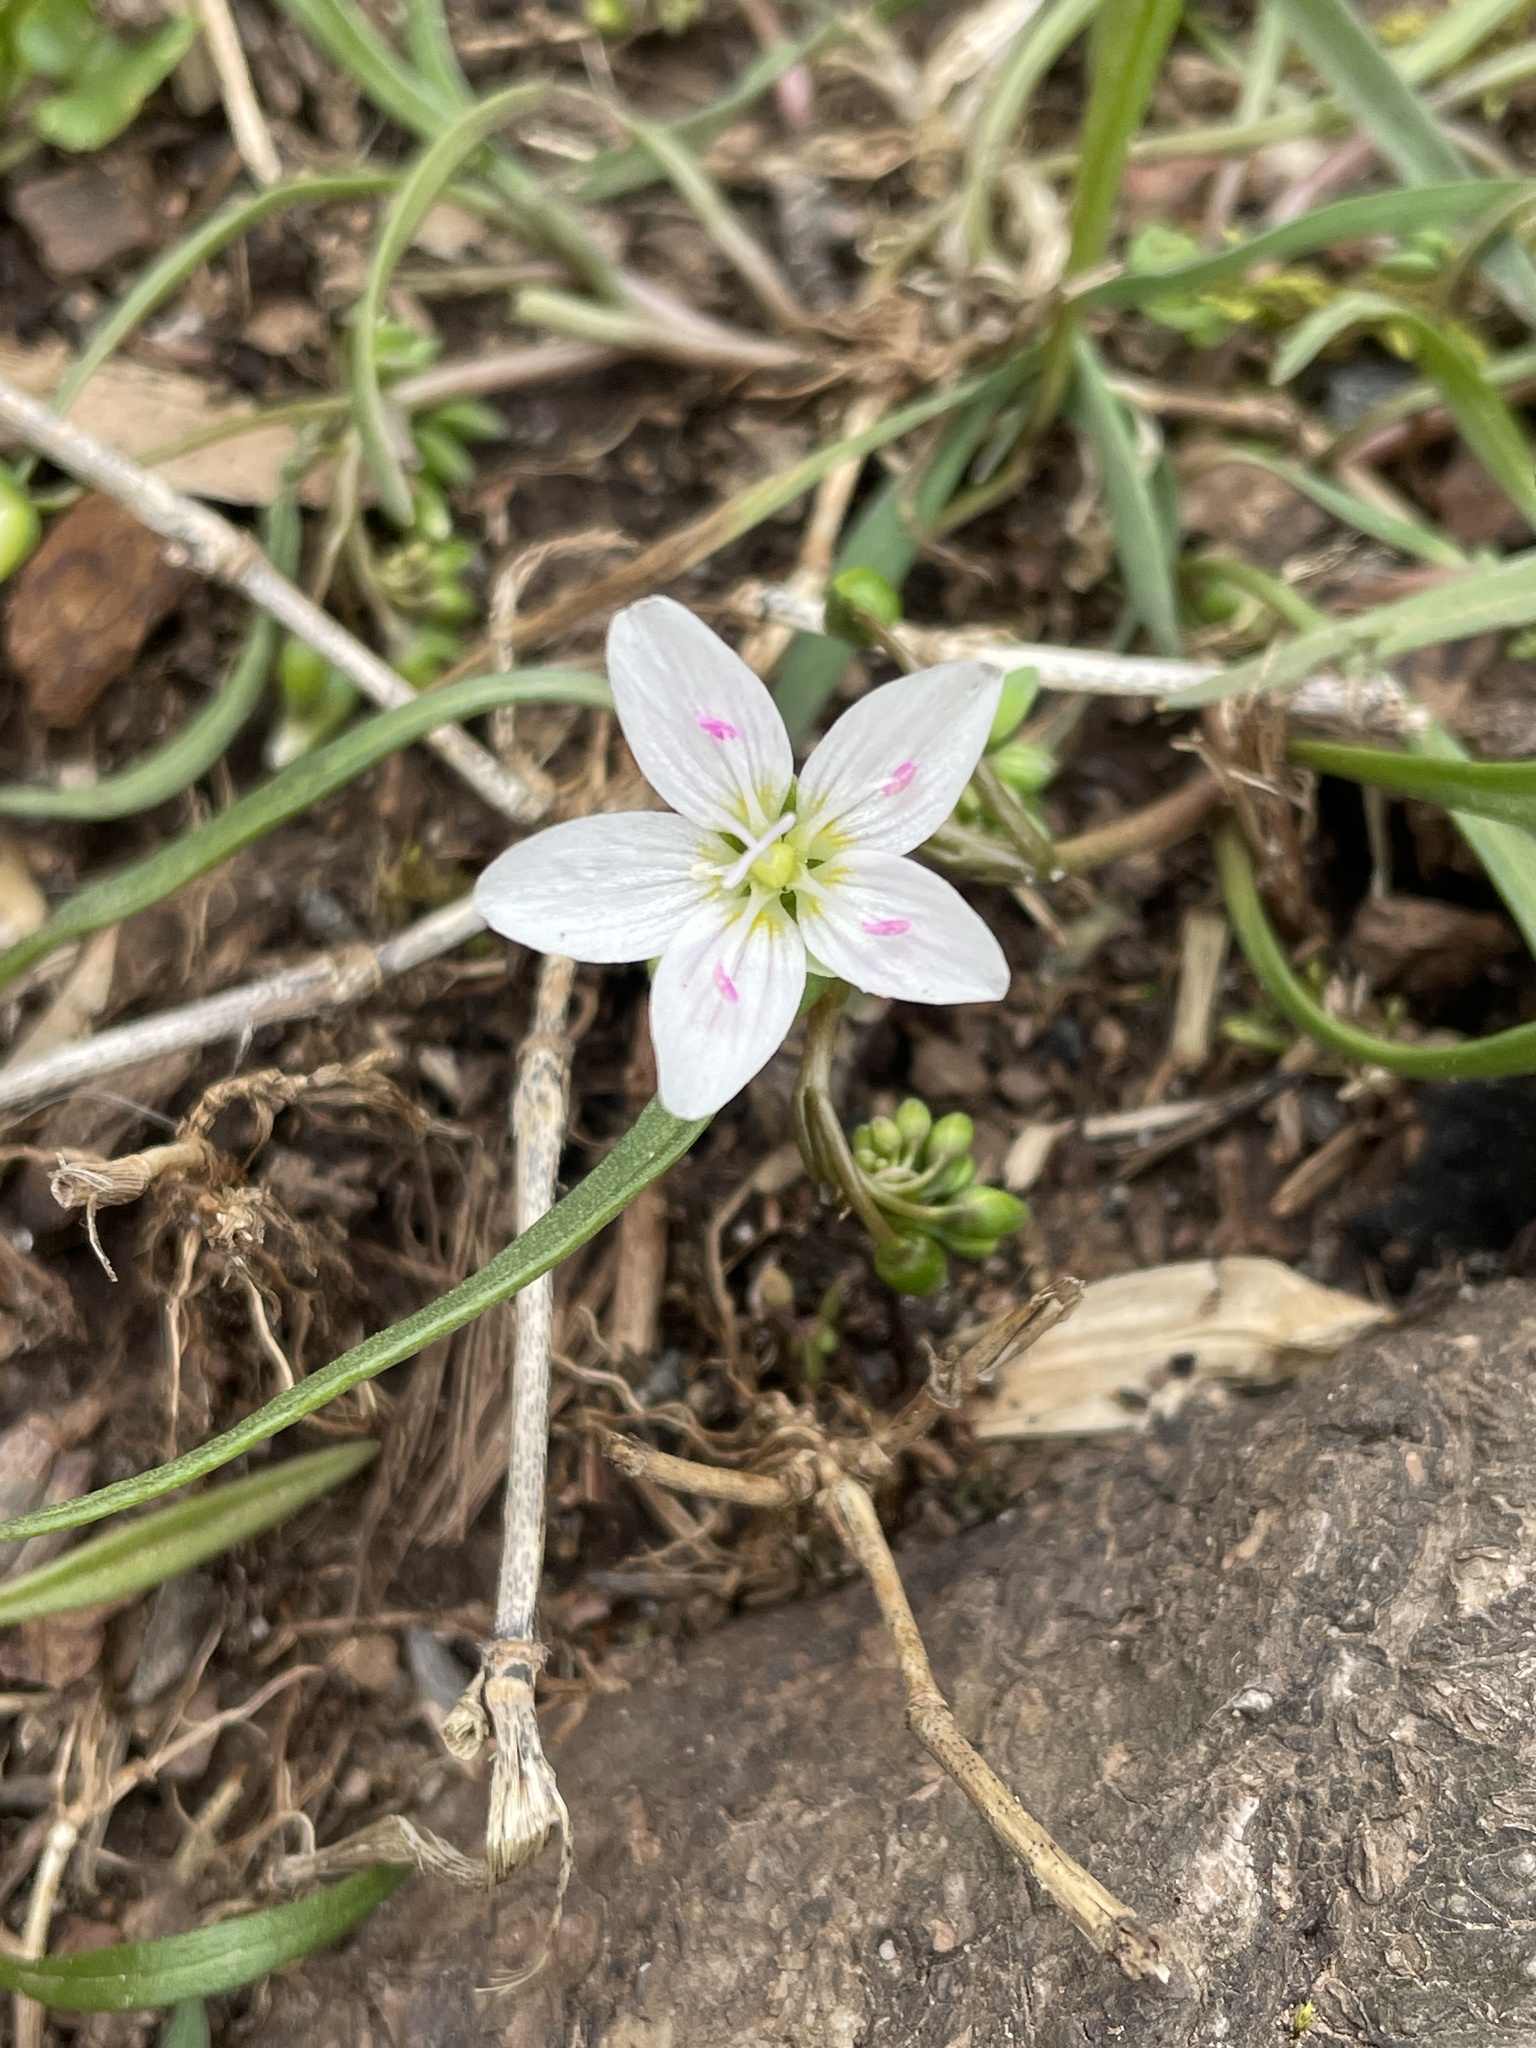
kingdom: Plantae
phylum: Tracheophyta
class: Magnoliopsida
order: Caryophyllales
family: Montiaceae
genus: Claytonia
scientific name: Claytonia virginica
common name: Virginia springbeauty
